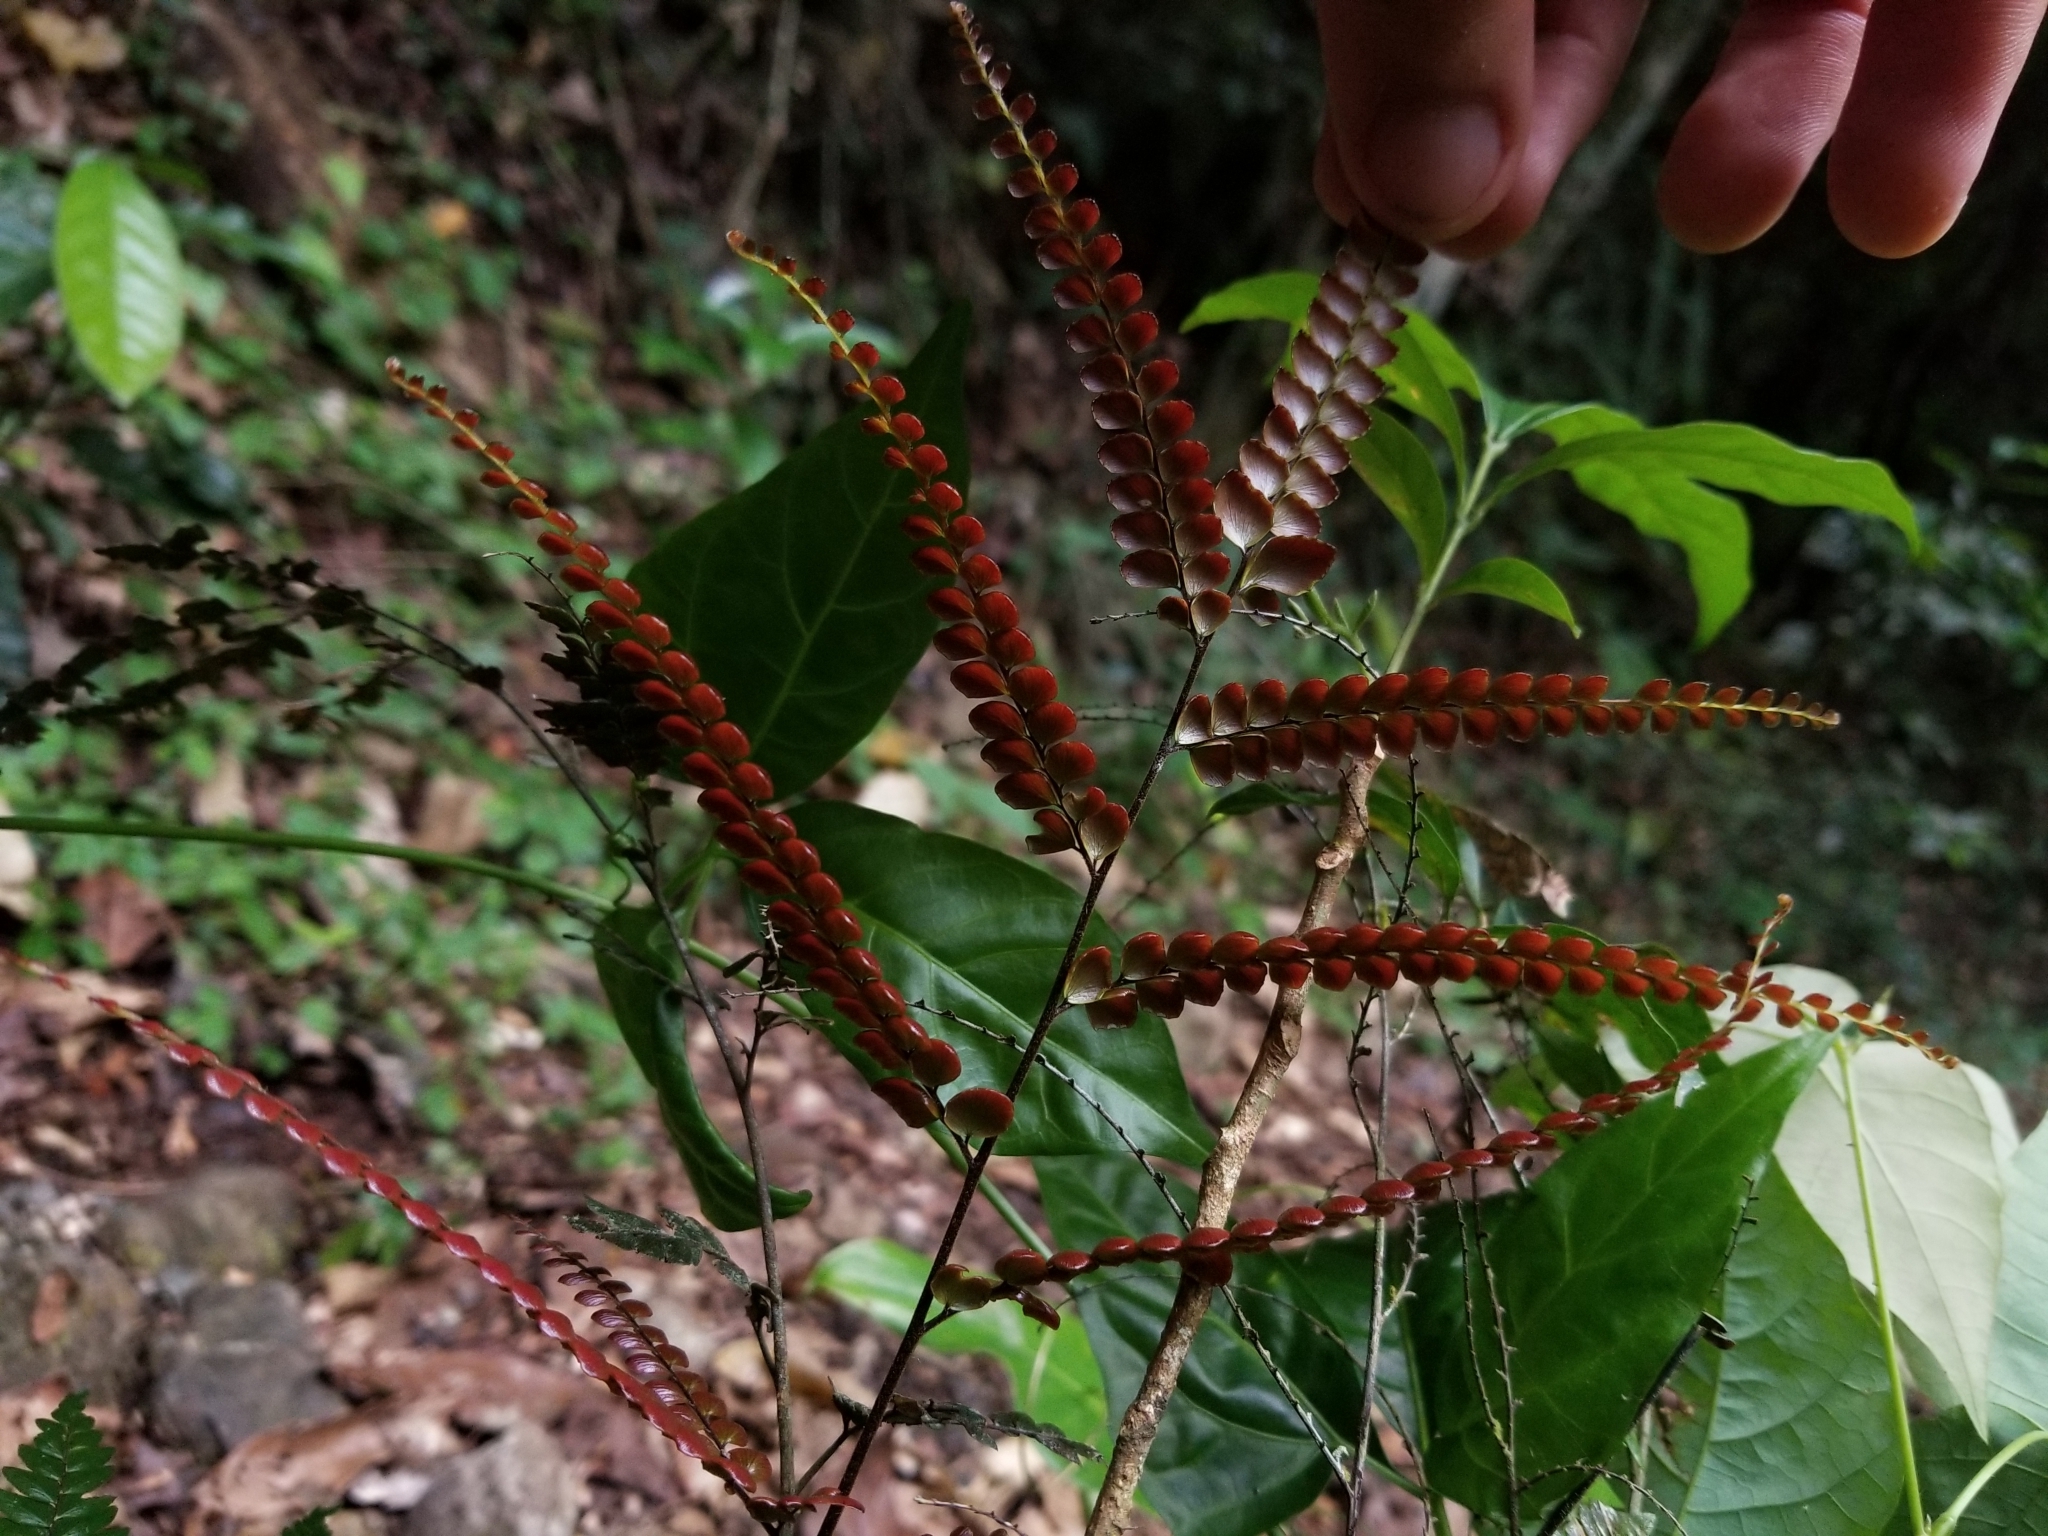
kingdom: Plantae
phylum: Tracheophyta
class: Polypodiopsida
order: Polypodiales
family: Pteridaceae
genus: Adiantum
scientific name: Adiantum pyramidale
